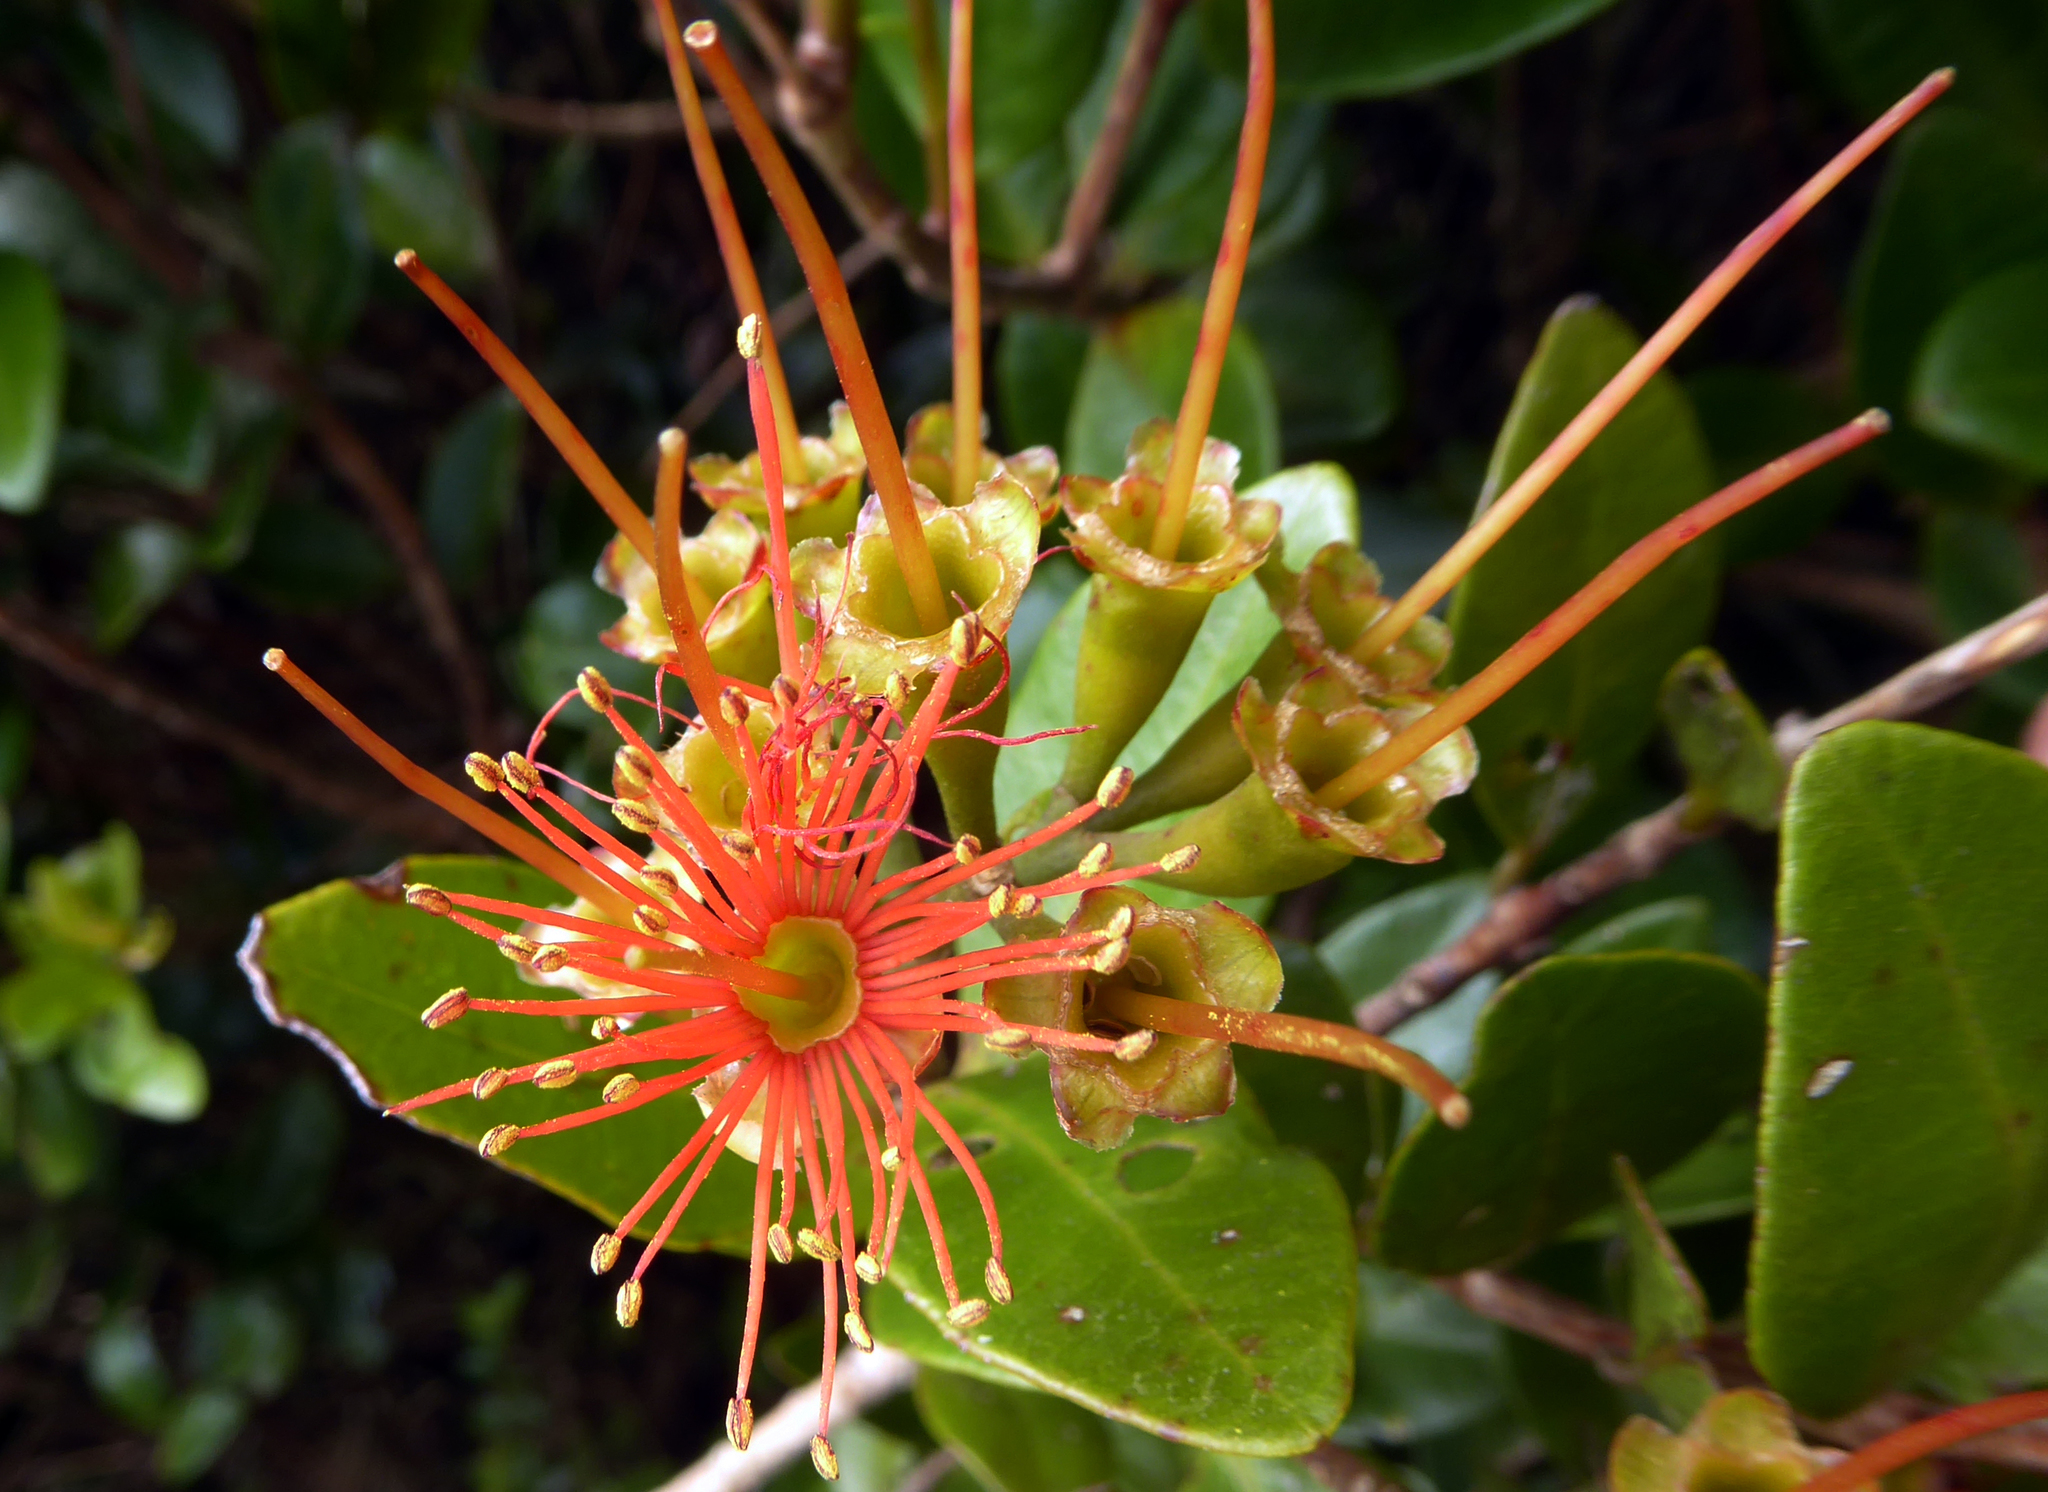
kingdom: Plantae
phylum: Tracheophyta
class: Magnoliopsida
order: Myrtales
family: Myrtaceae
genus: Metrosideros
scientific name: Metrosideros fulgens
